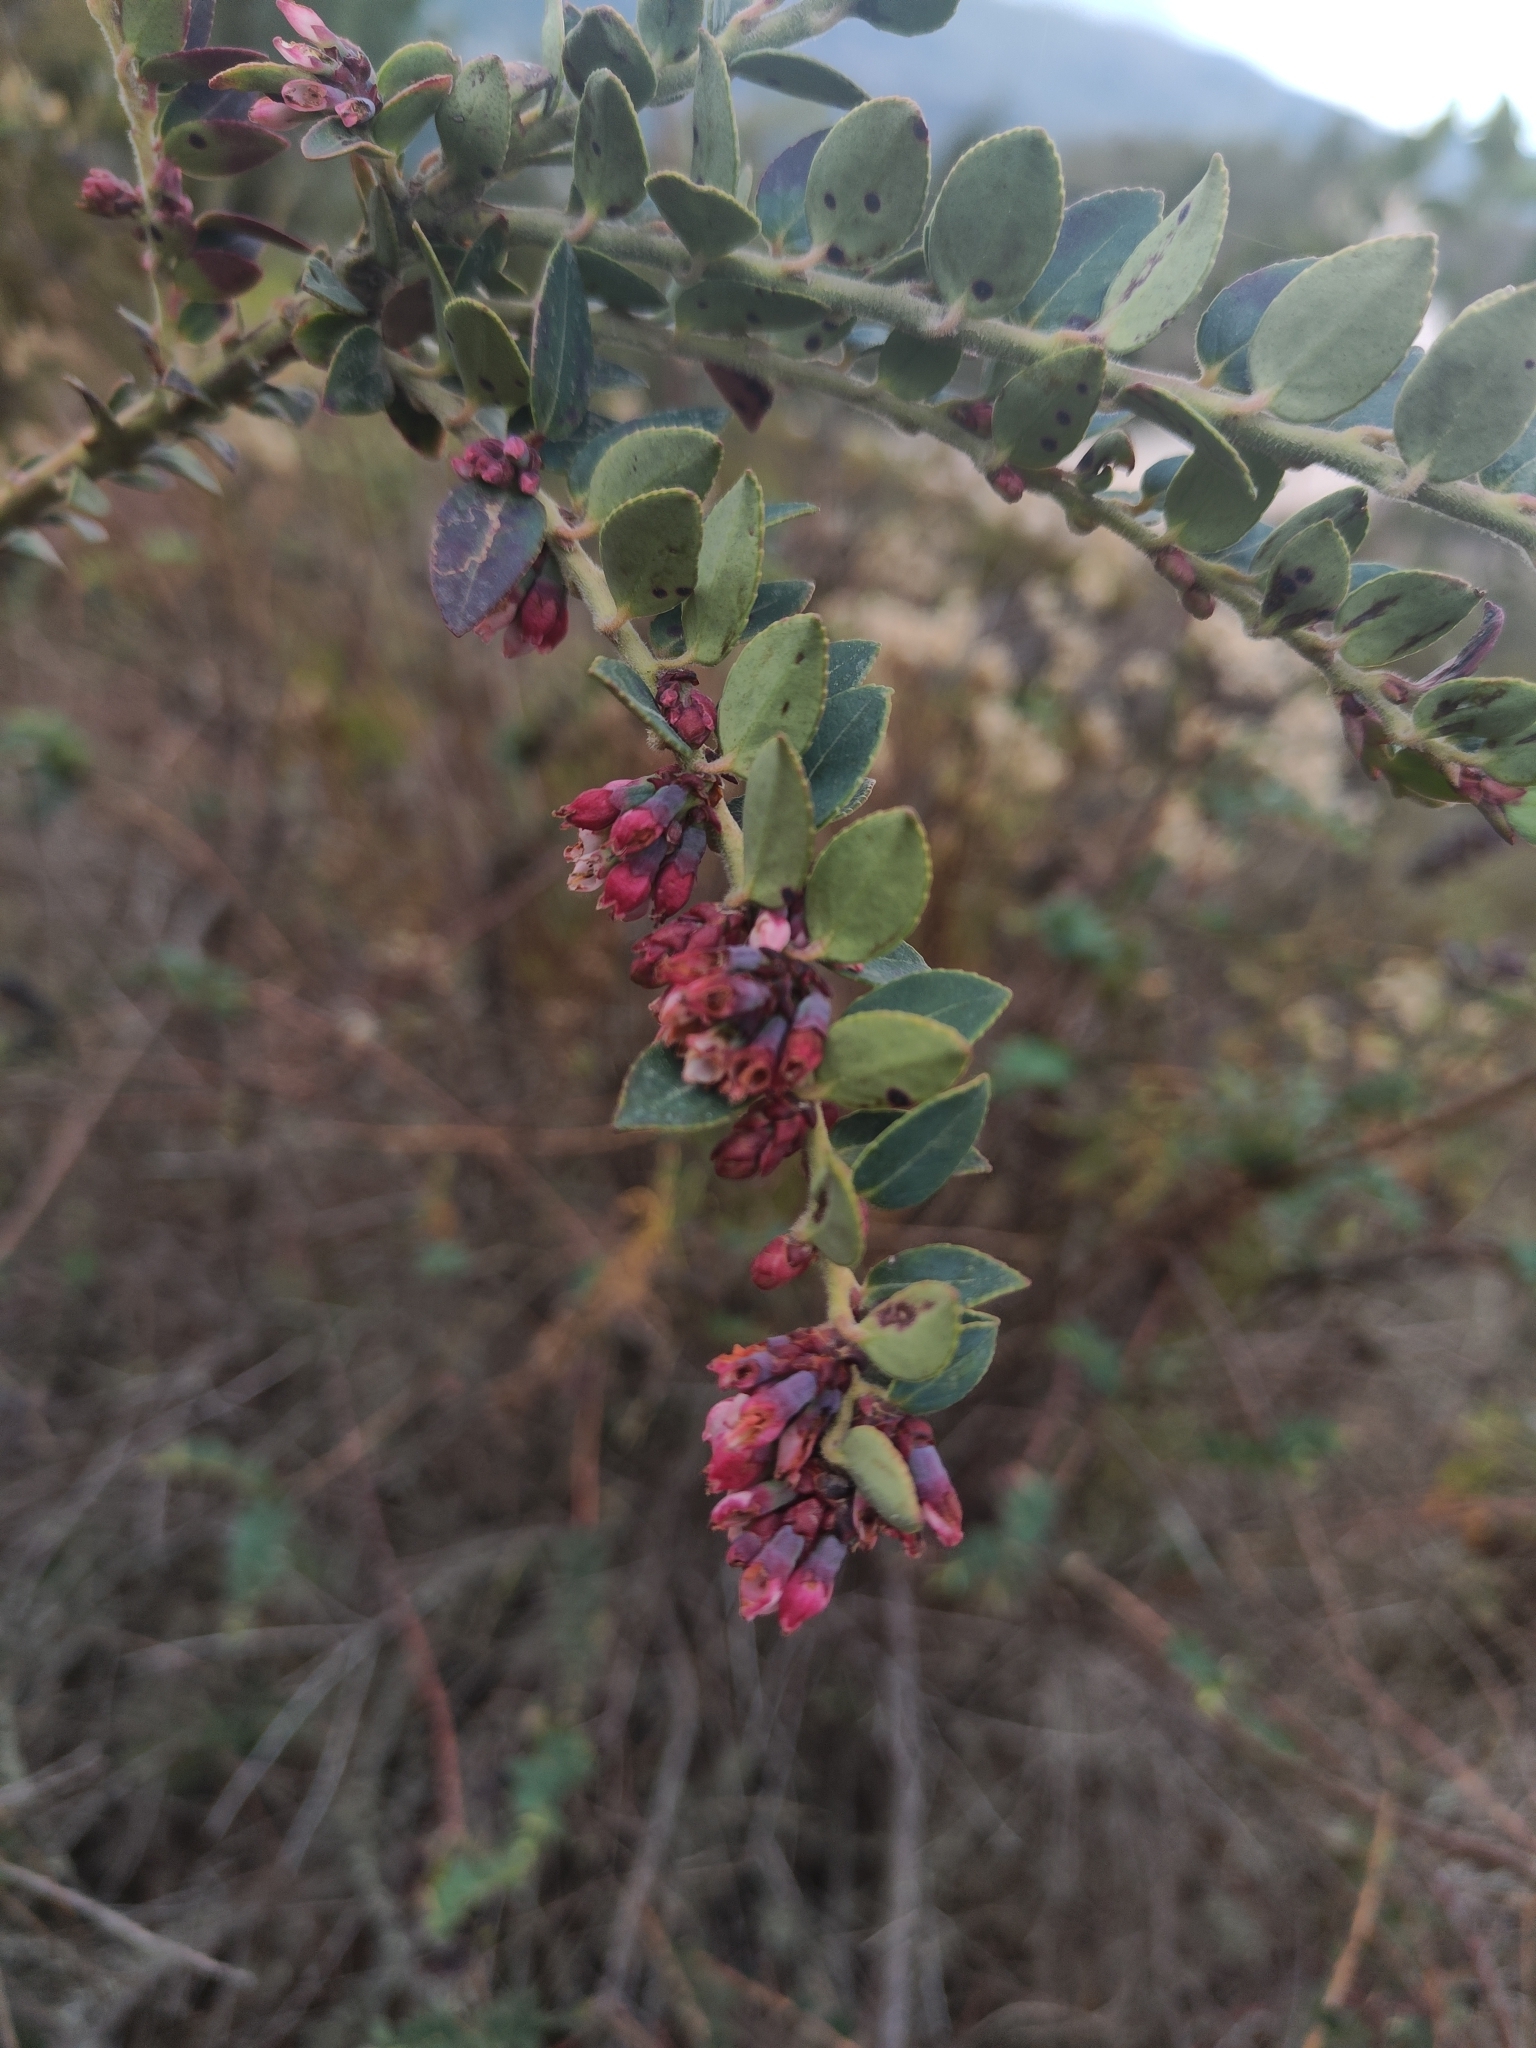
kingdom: Plantae
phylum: Tracheophyta
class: Magnoliopsida
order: Ericales
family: Ericaceae
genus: Vaccinium
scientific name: Vaccinium floribundum
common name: Colombian blueberry
